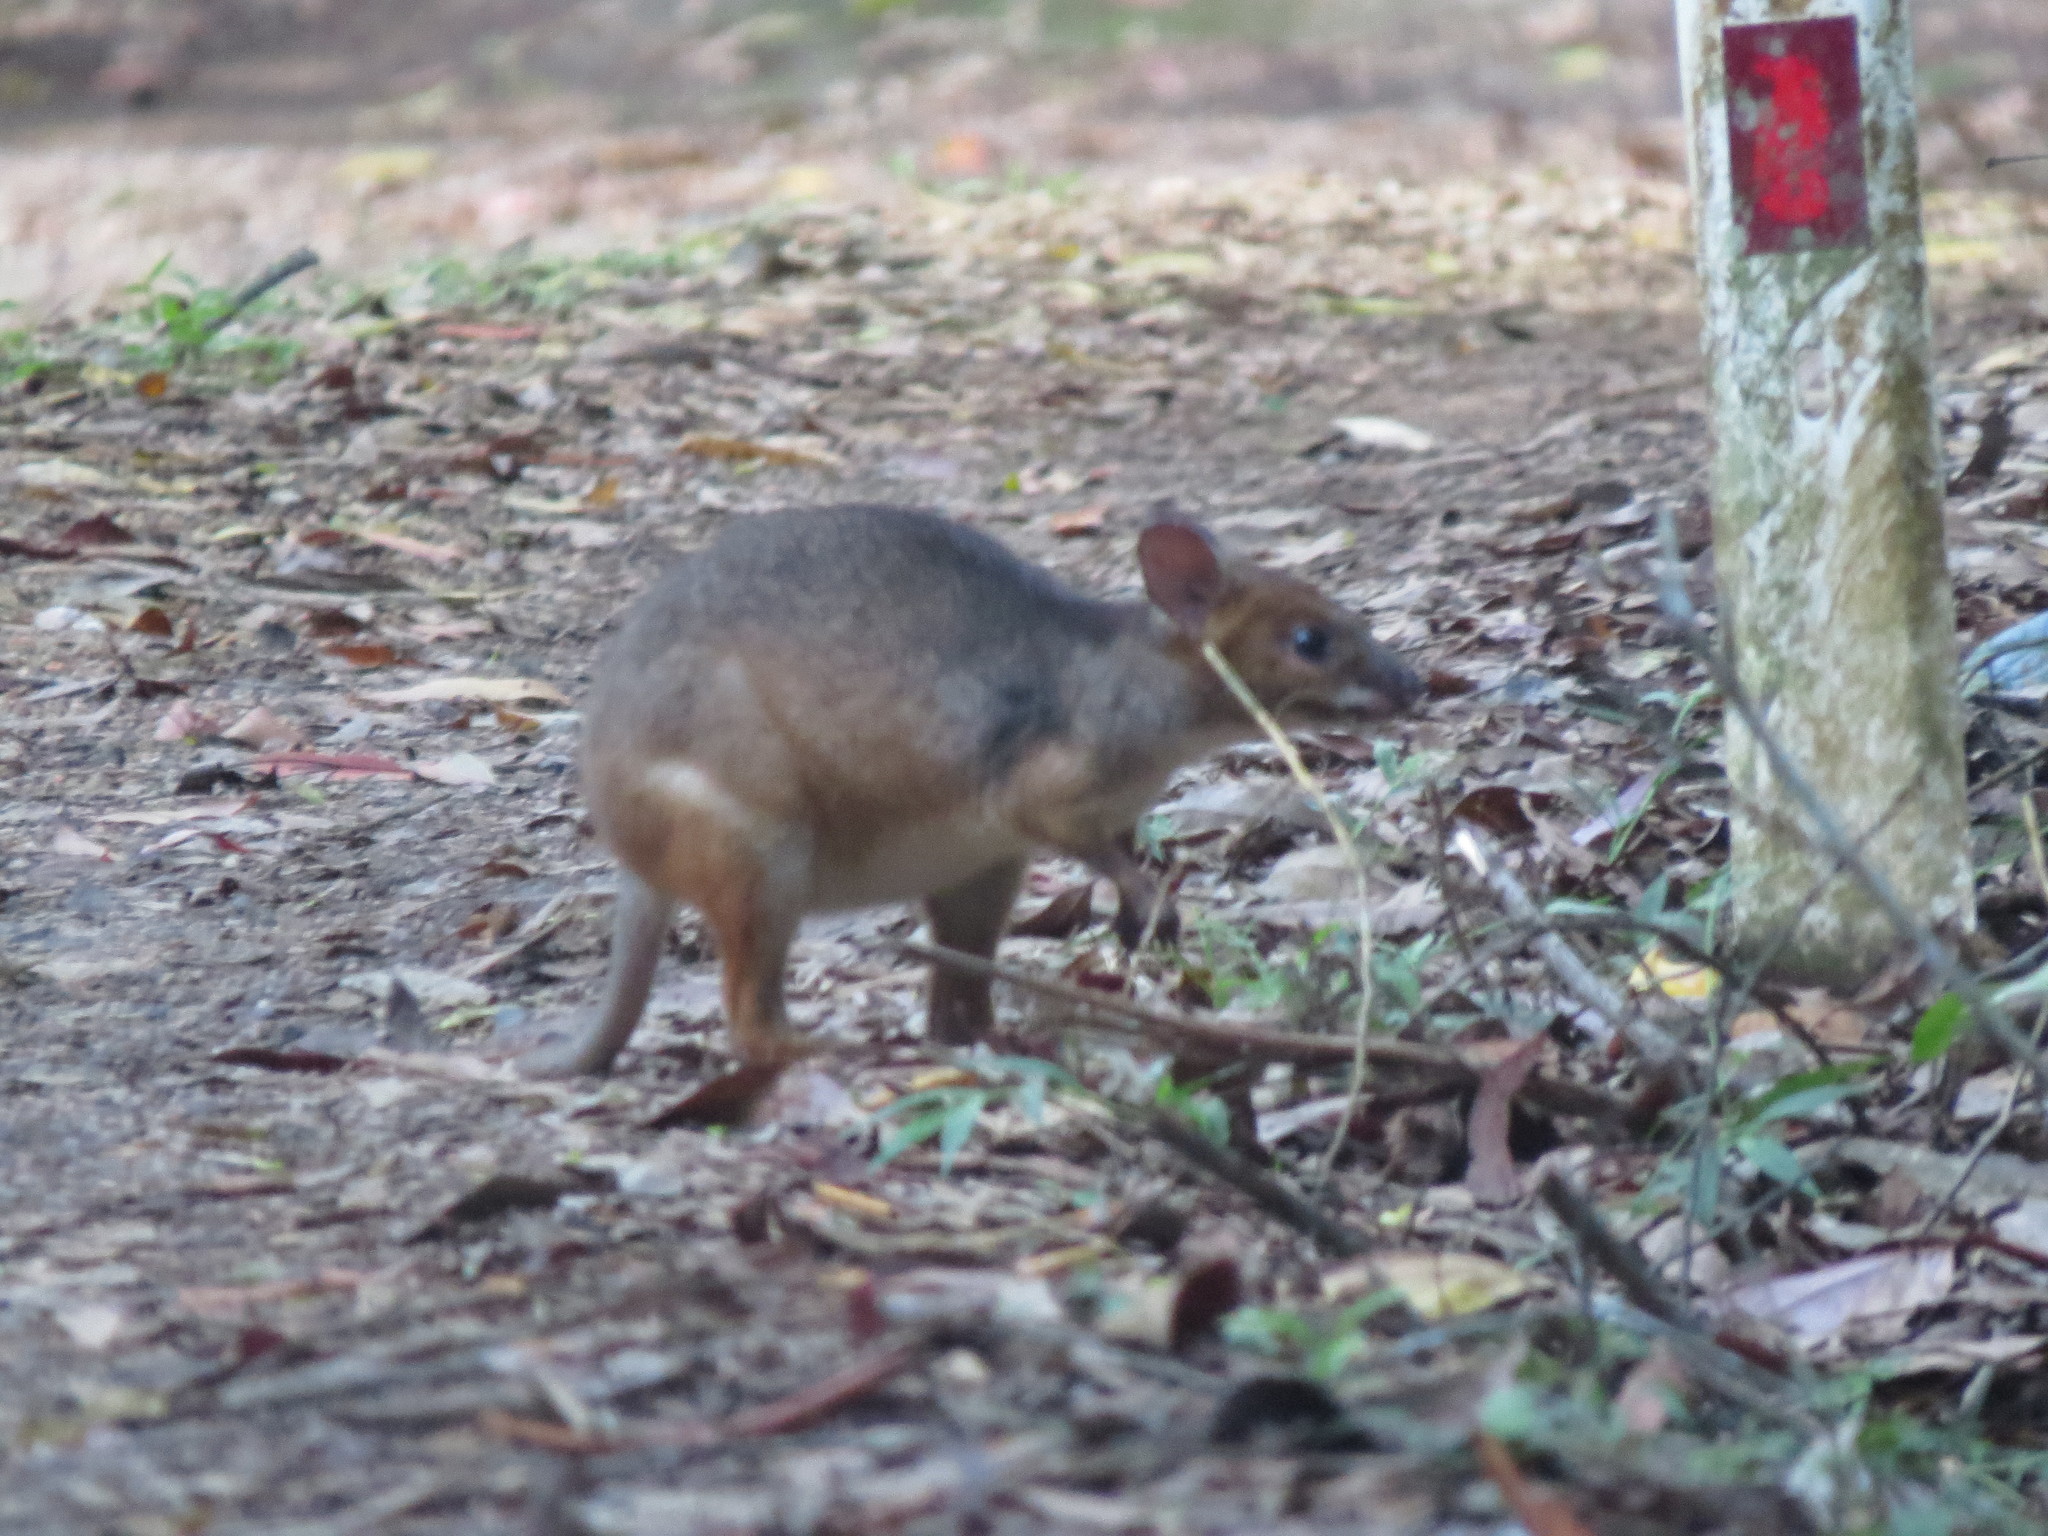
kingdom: Animalia
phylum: Chordata
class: Mammalia
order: Diprotodontia
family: Macropodidae
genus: Thylogale
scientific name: Thylogale stigmatica
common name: Red-legged pademelon
